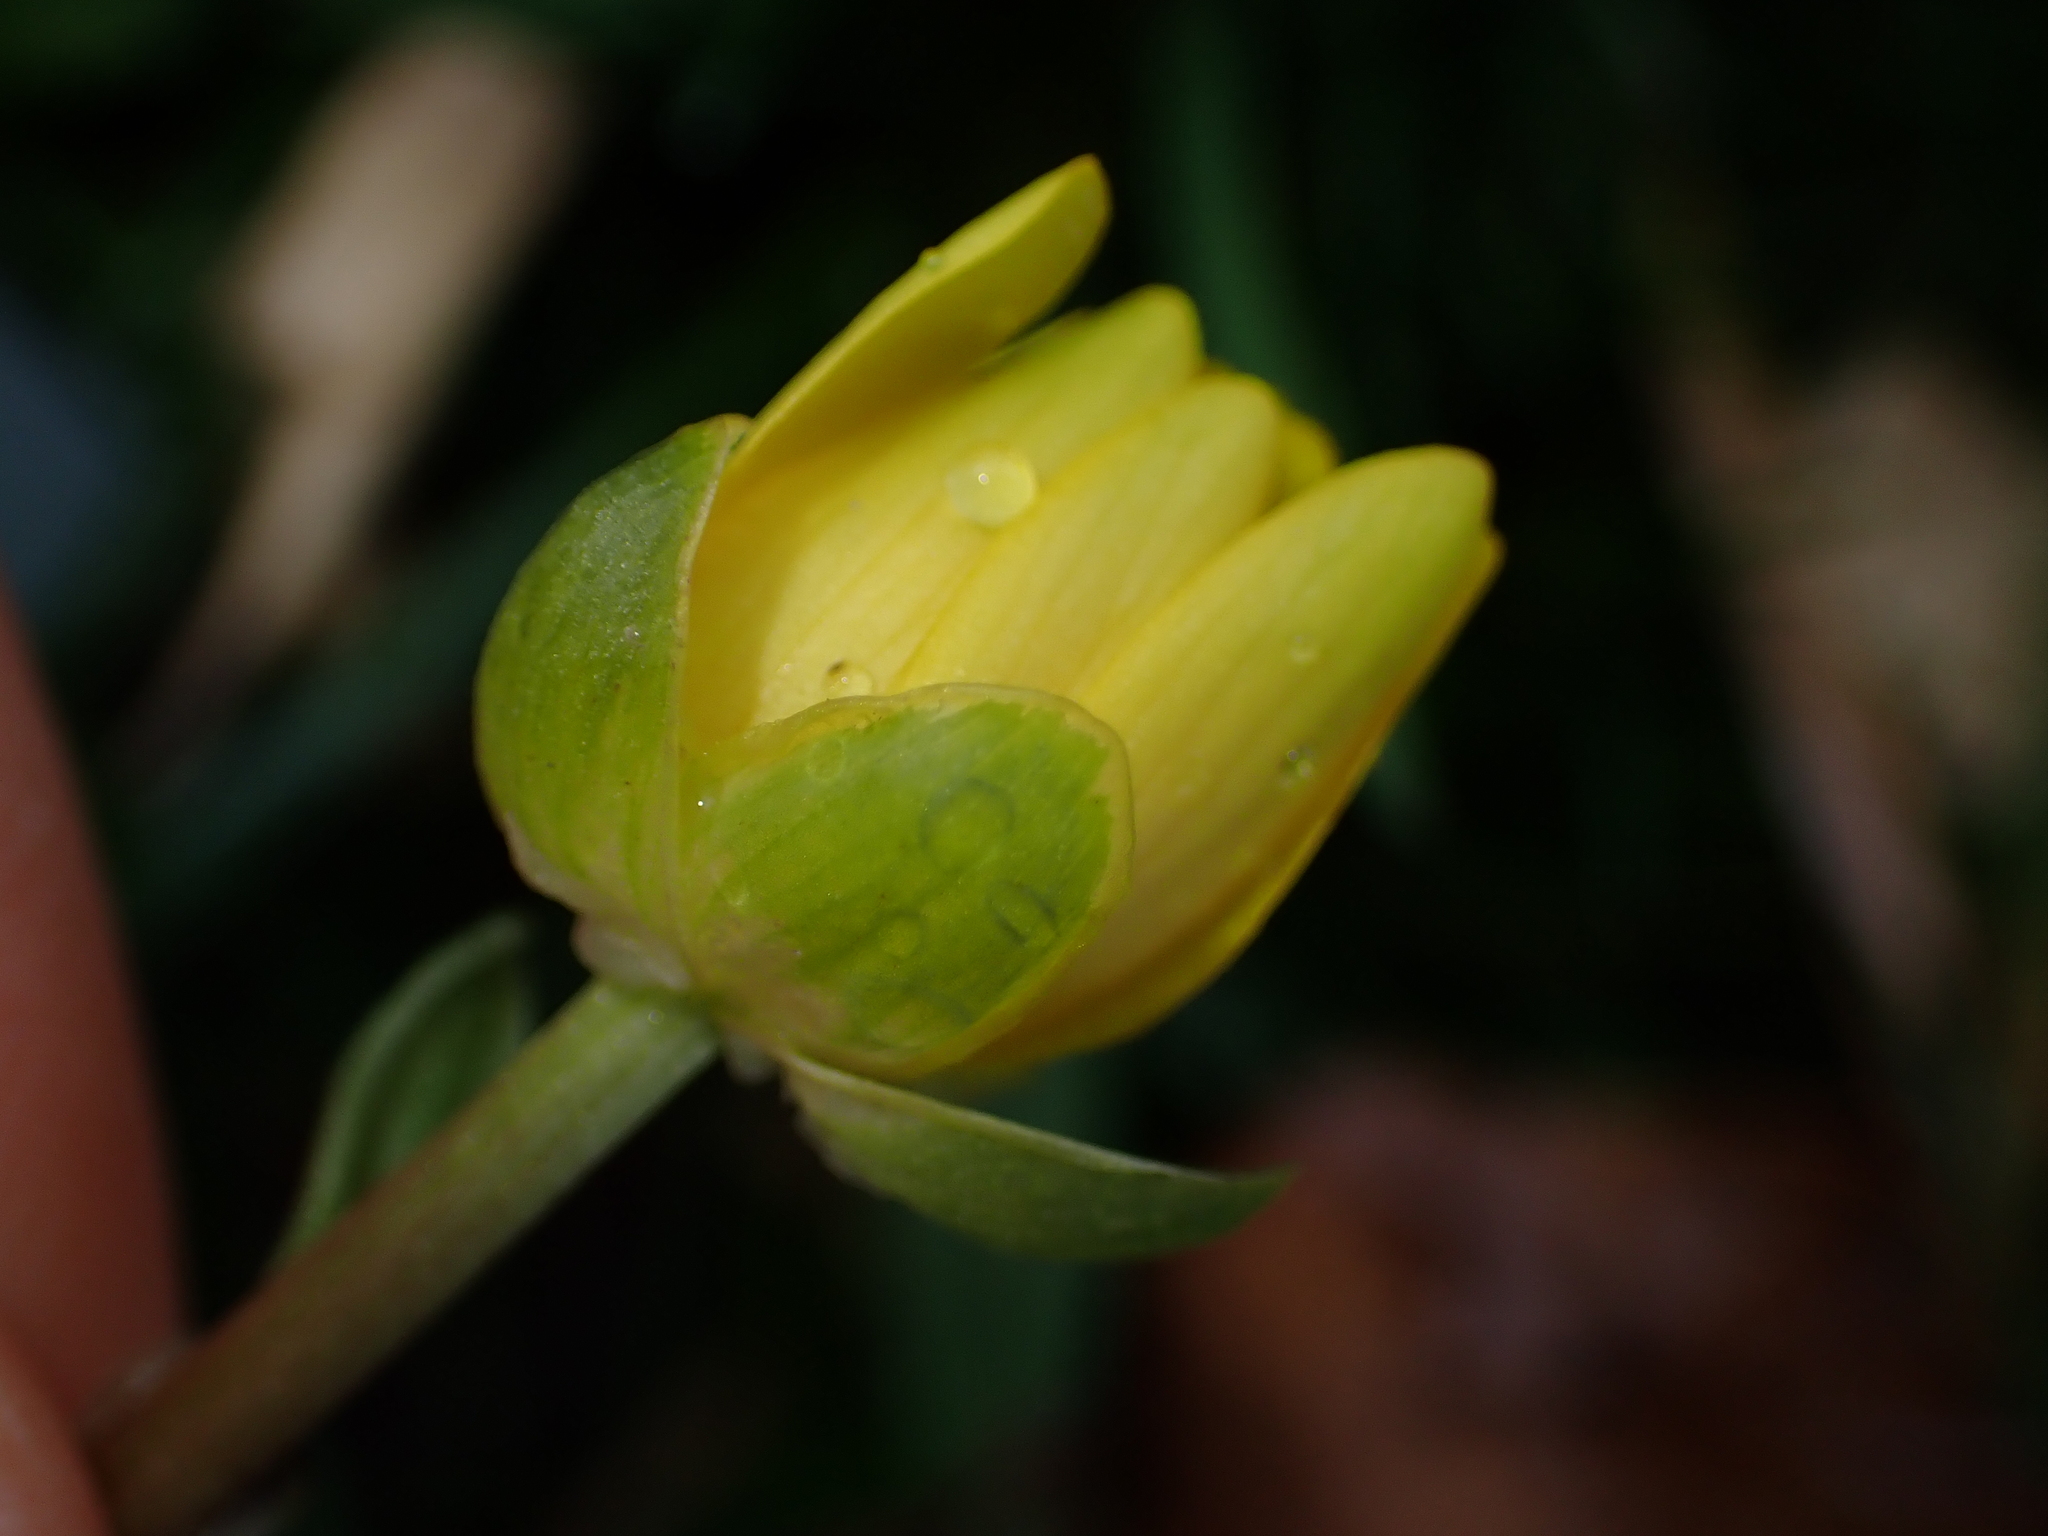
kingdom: Plantae
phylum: Tracheophyta
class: Magnoliopsida
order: Ranunculales
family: Ranunculaceae
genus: Ficaria
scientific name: Ficaria verna
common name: Lesser celandine
